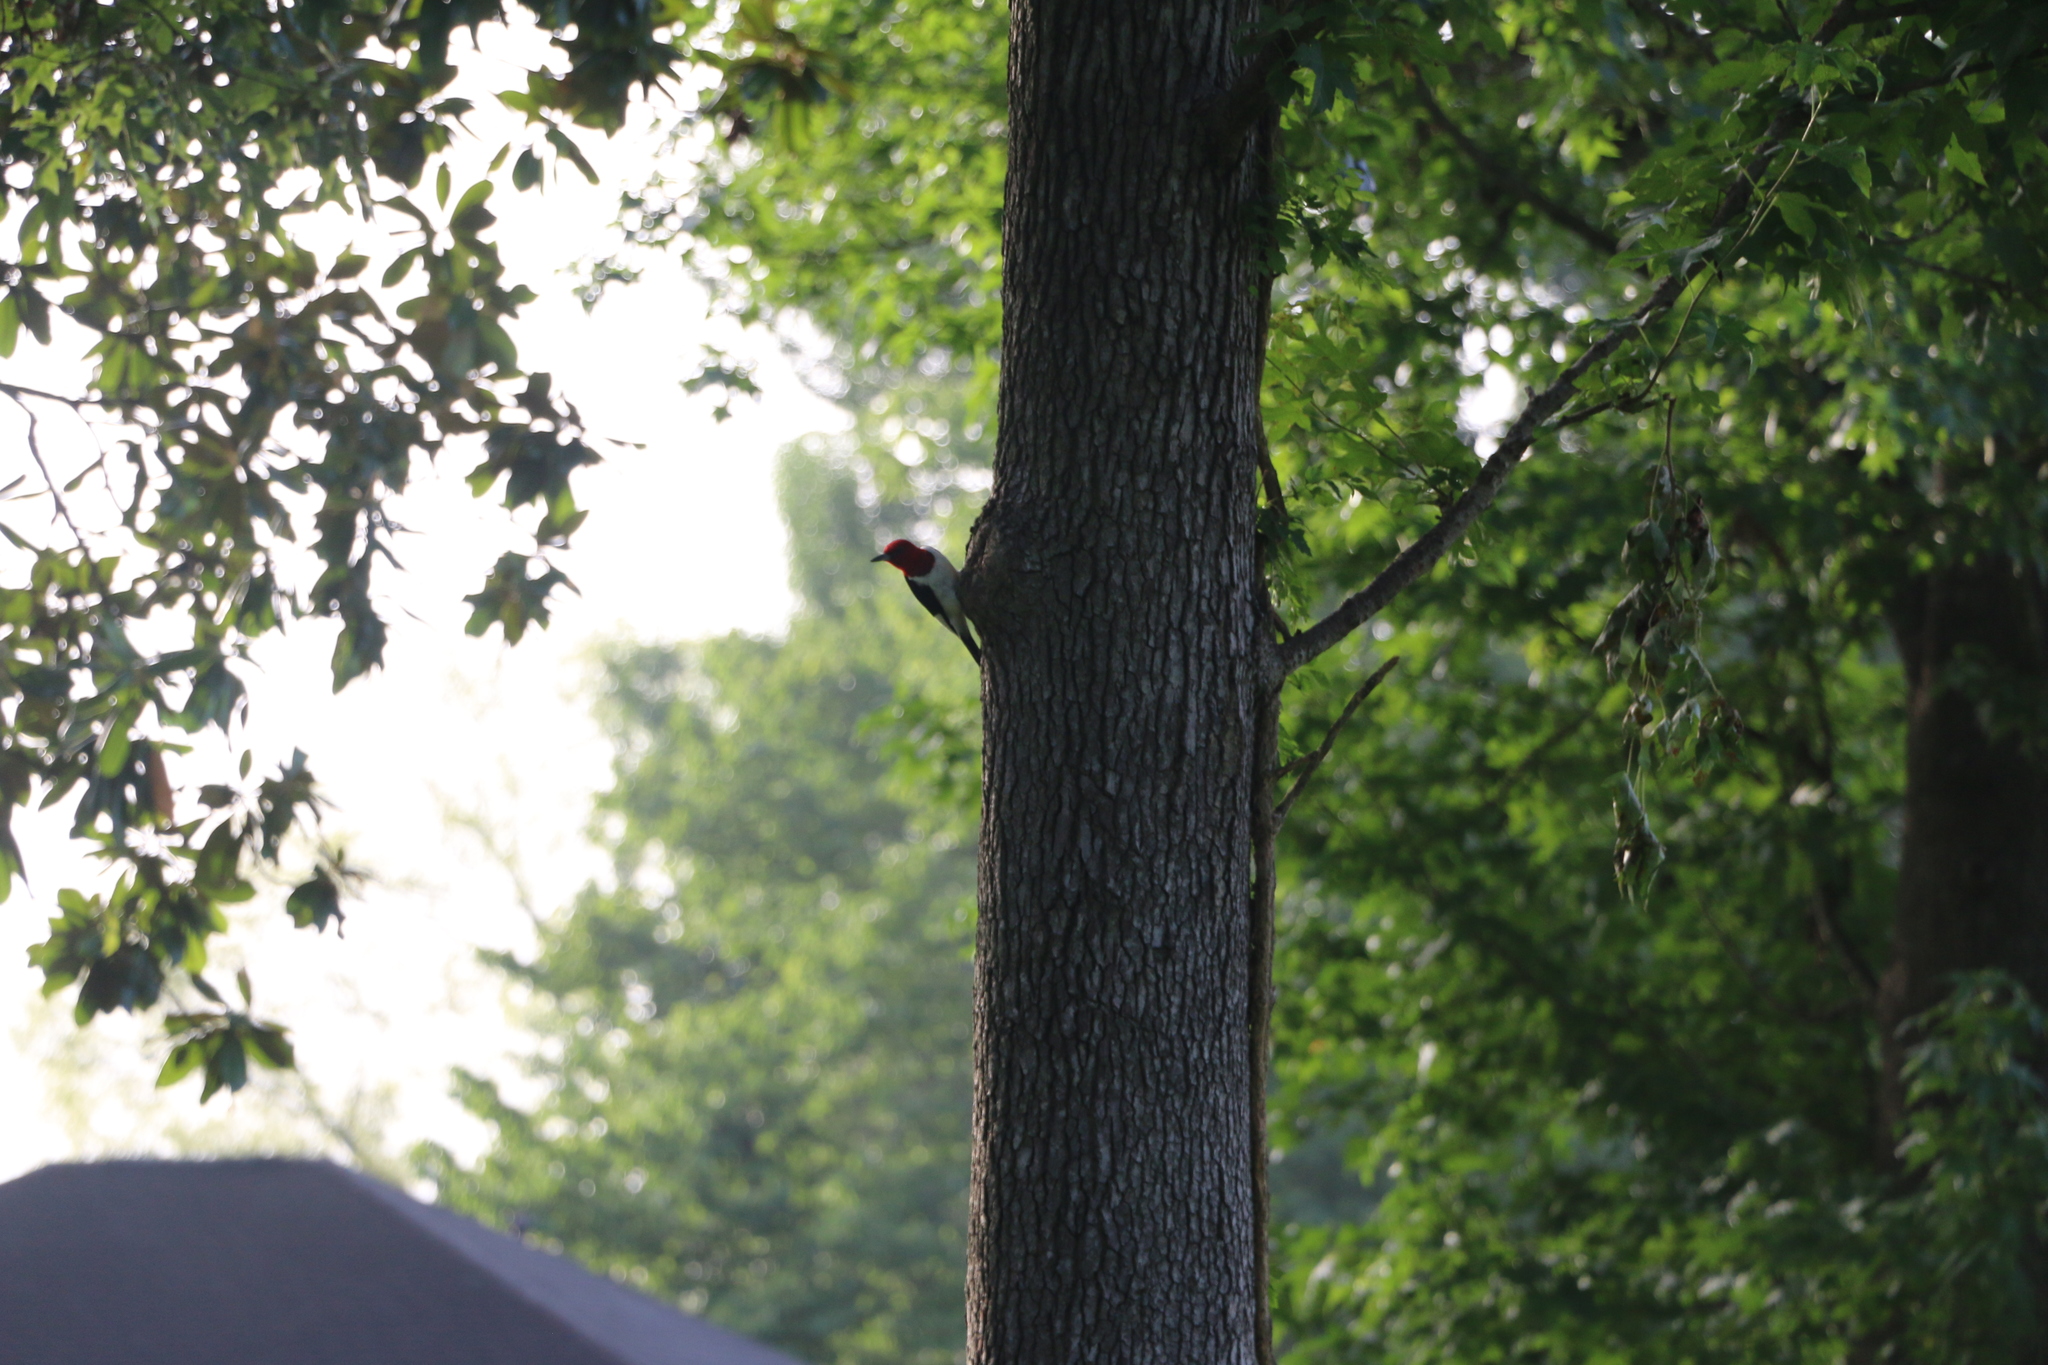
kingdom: Animalia
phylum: Chordata
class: Aves
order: Piciformes
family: Picidae
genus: Melanerpes
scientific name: Melanerpes erythrocephalus
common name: Red-headed woodpecker
